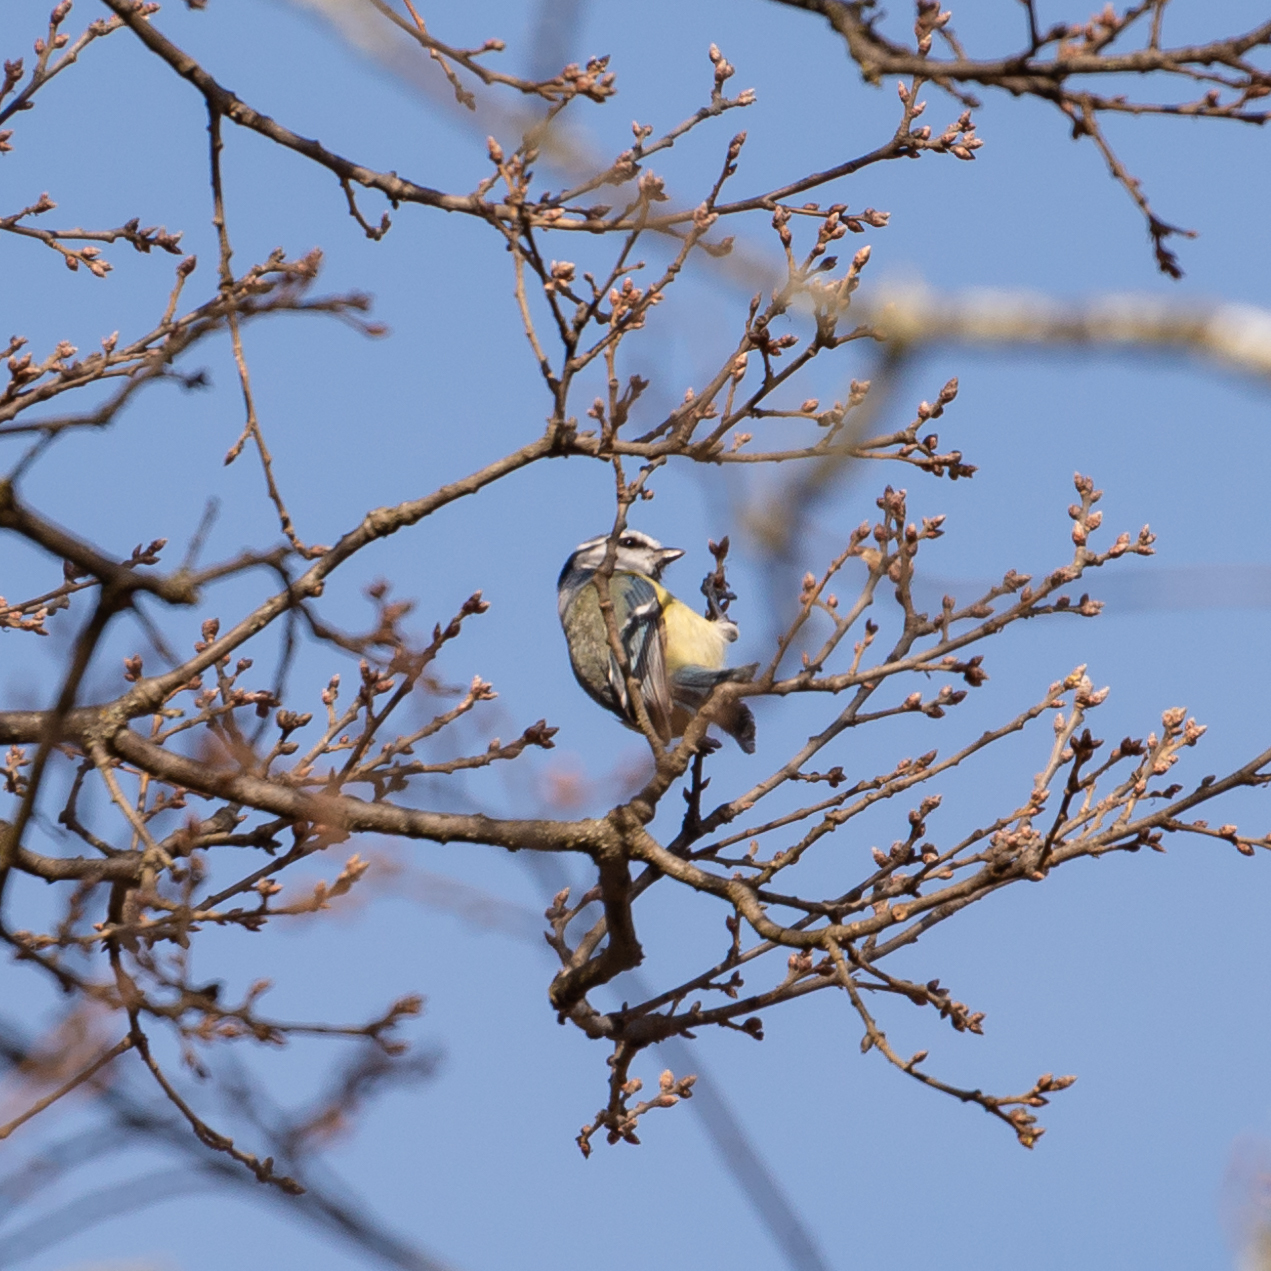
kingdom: Animalia
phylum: Chordata
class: Aves
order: Passeriformes
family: Paridae
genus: Cyanistes
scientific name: Cyanistes caeruleus
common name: Eurasian blue tit
